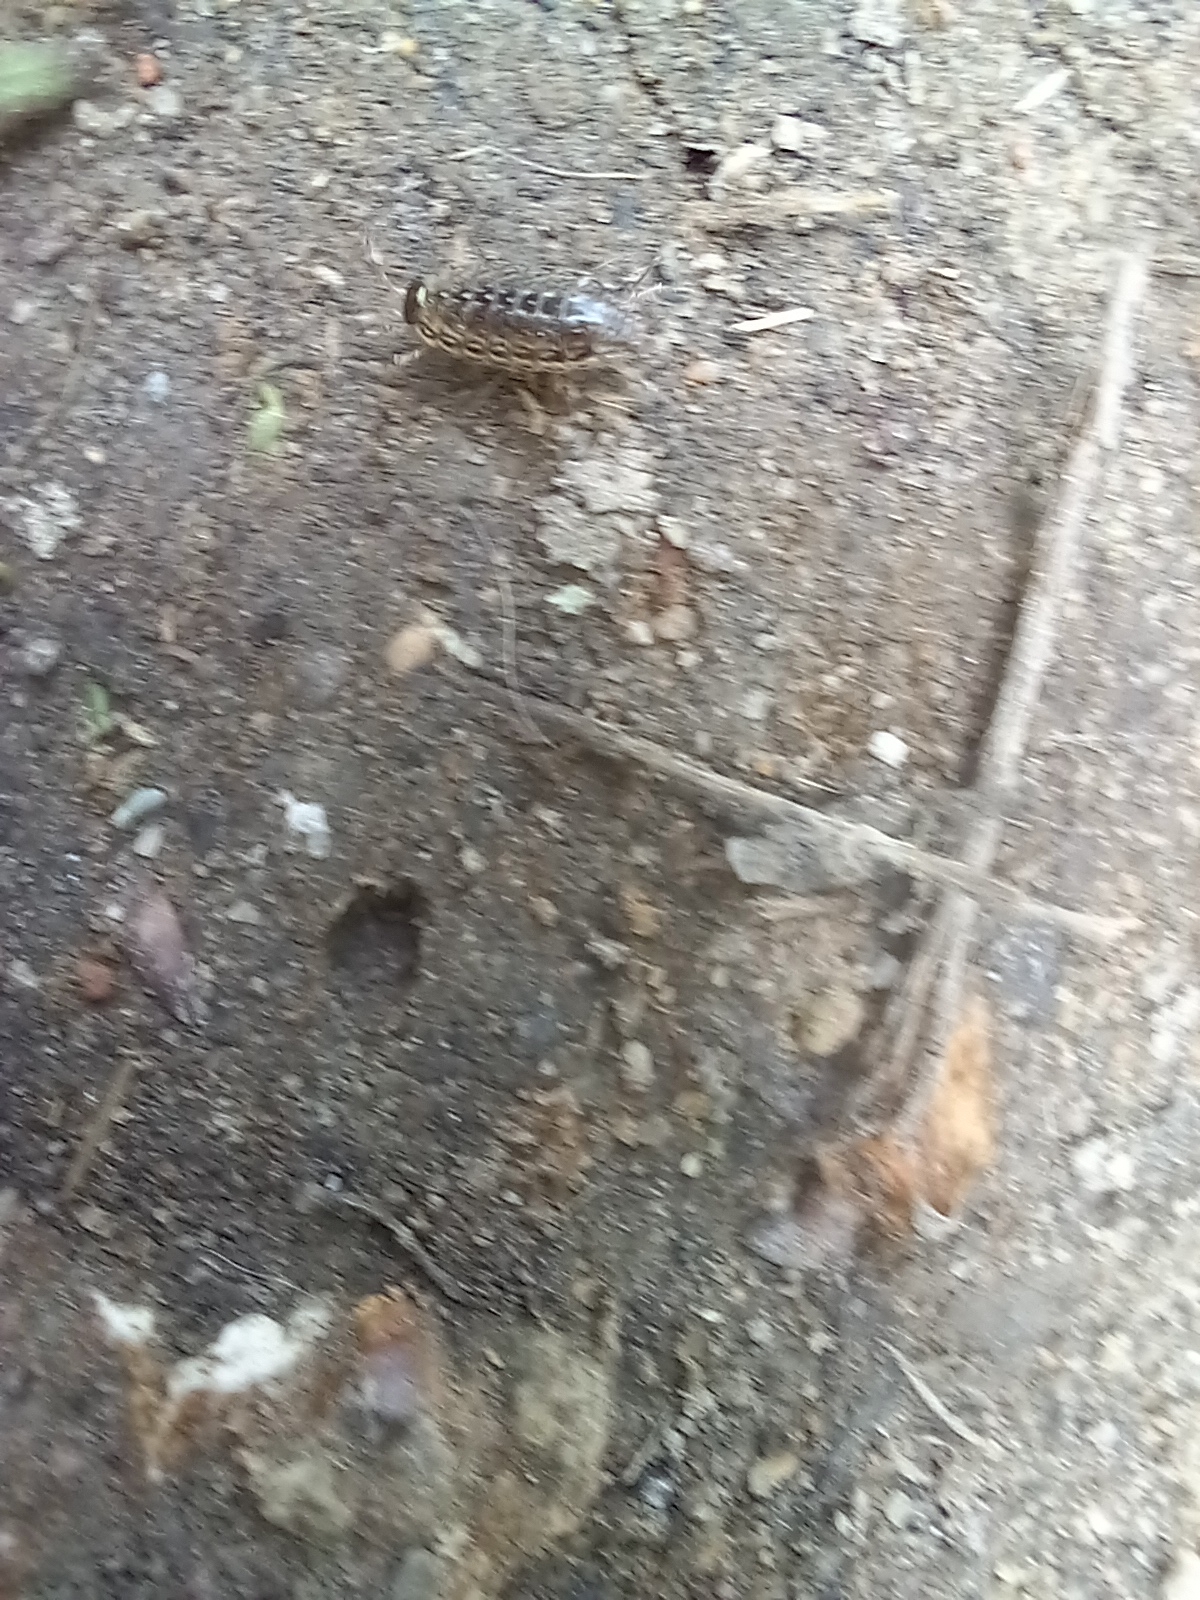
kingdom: Animalia
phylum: Arthropoda
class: Malacostraca
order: Isopoda
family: Philosciidae
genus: Philoscia
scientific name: Philoscia muscorum
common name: Common striped woodlouse
